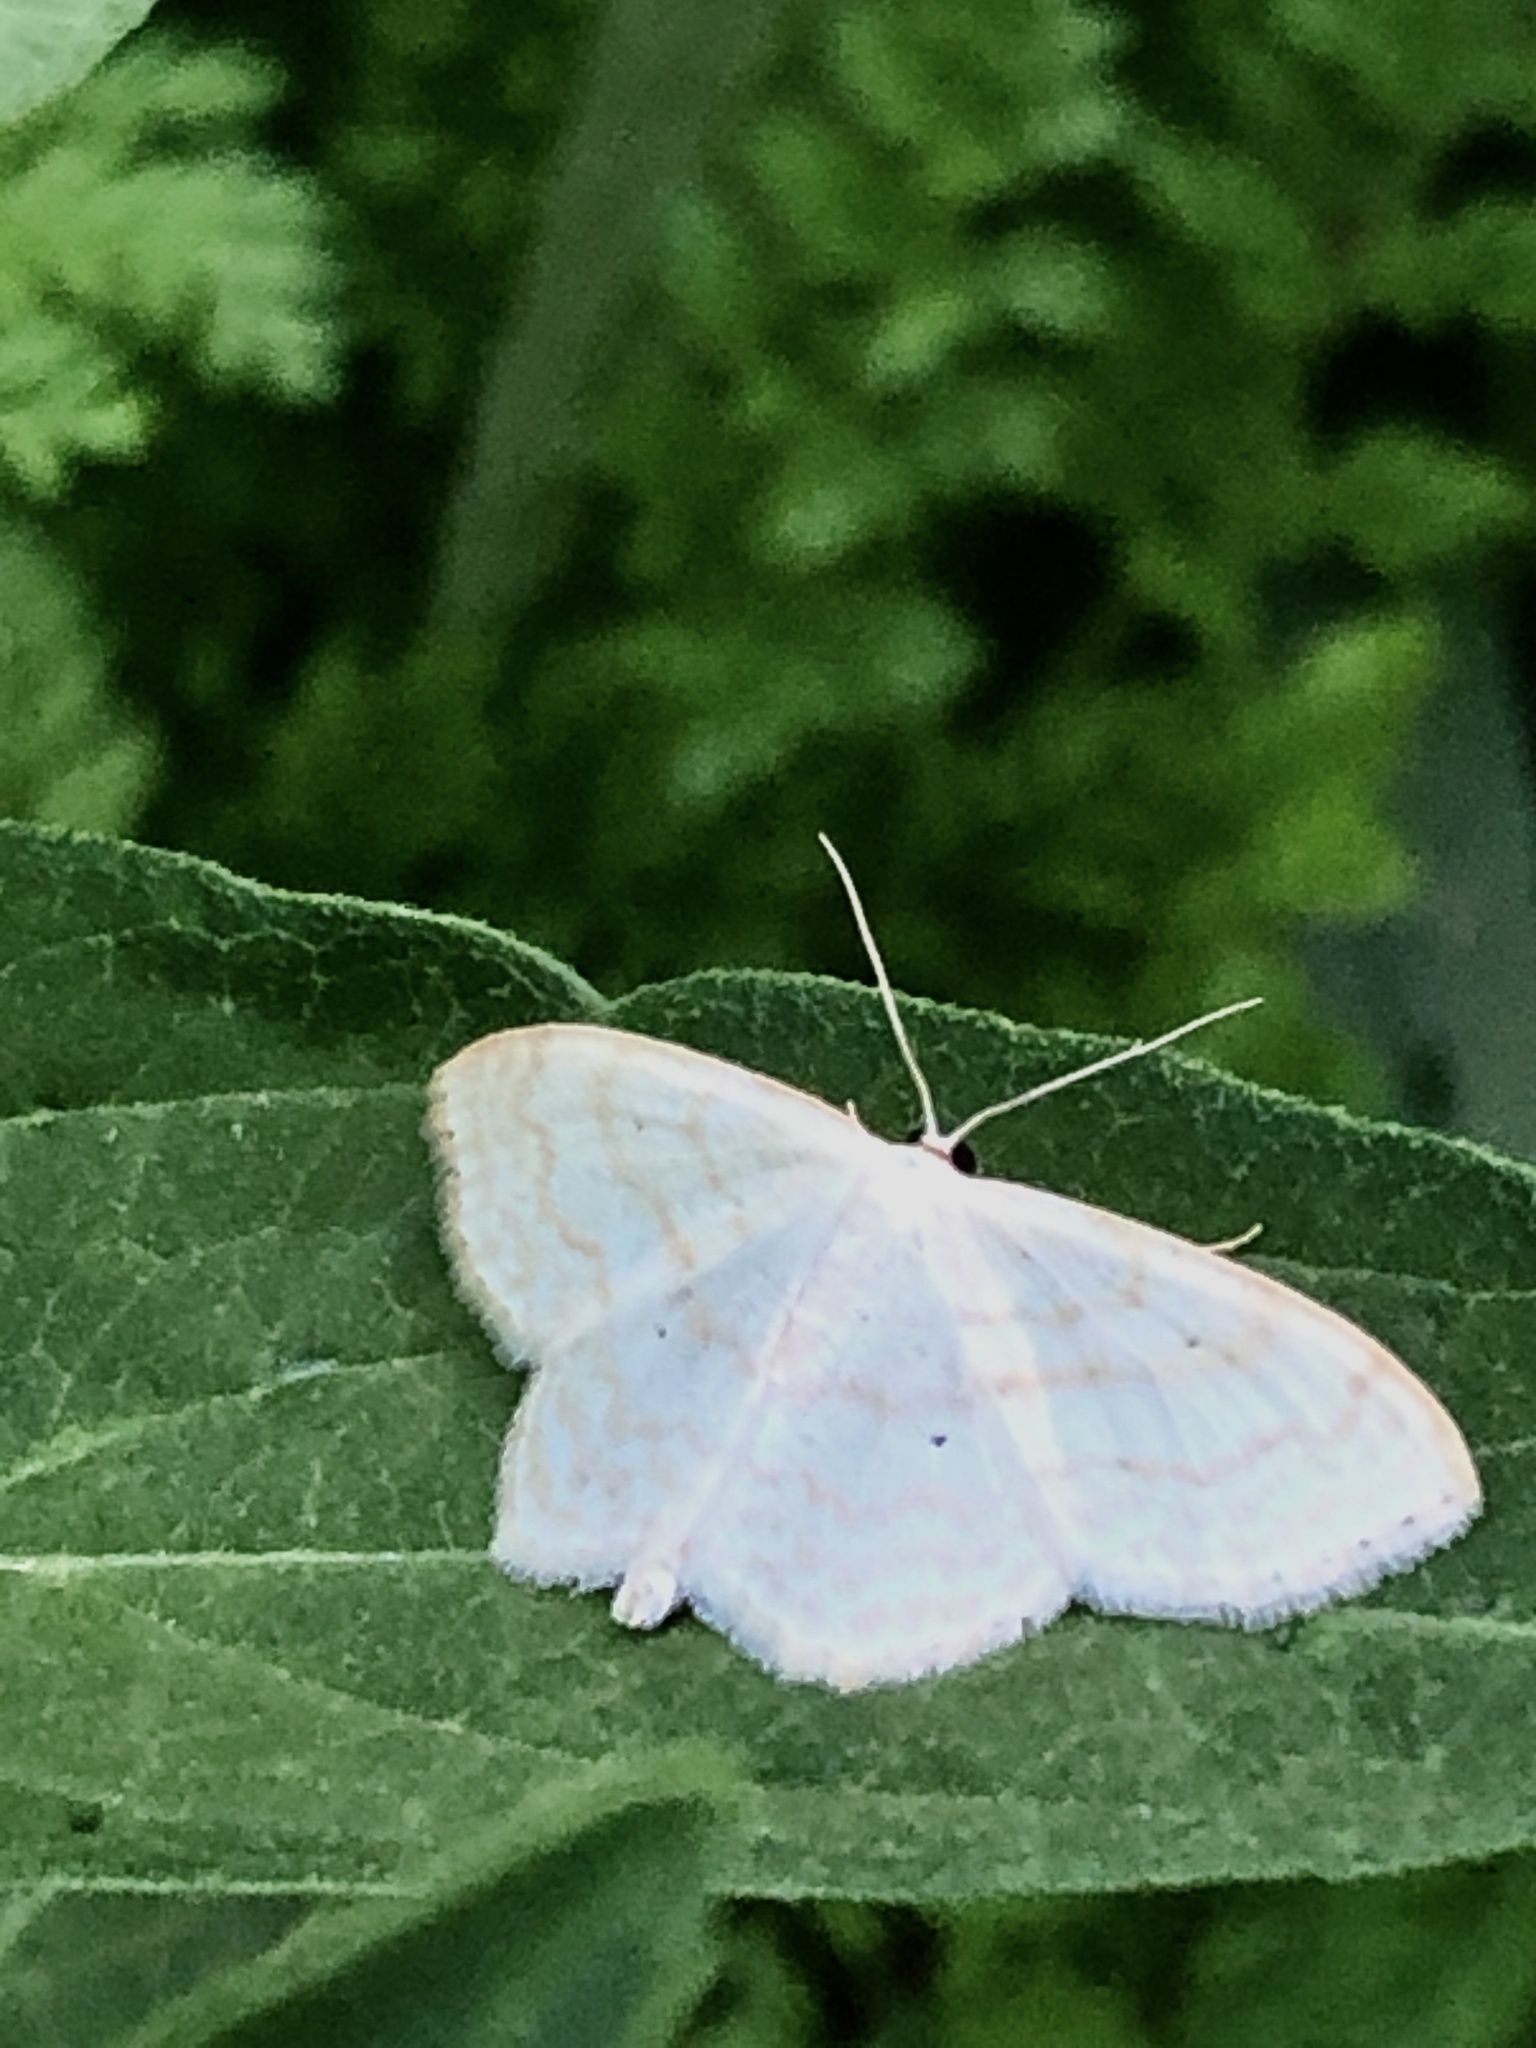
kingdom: Animalia
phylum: Arthropoda
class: Insecta
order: Lepidoptera
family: Geometridae
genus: Scopula
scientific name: Scopula limboundata
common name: Large lace border
